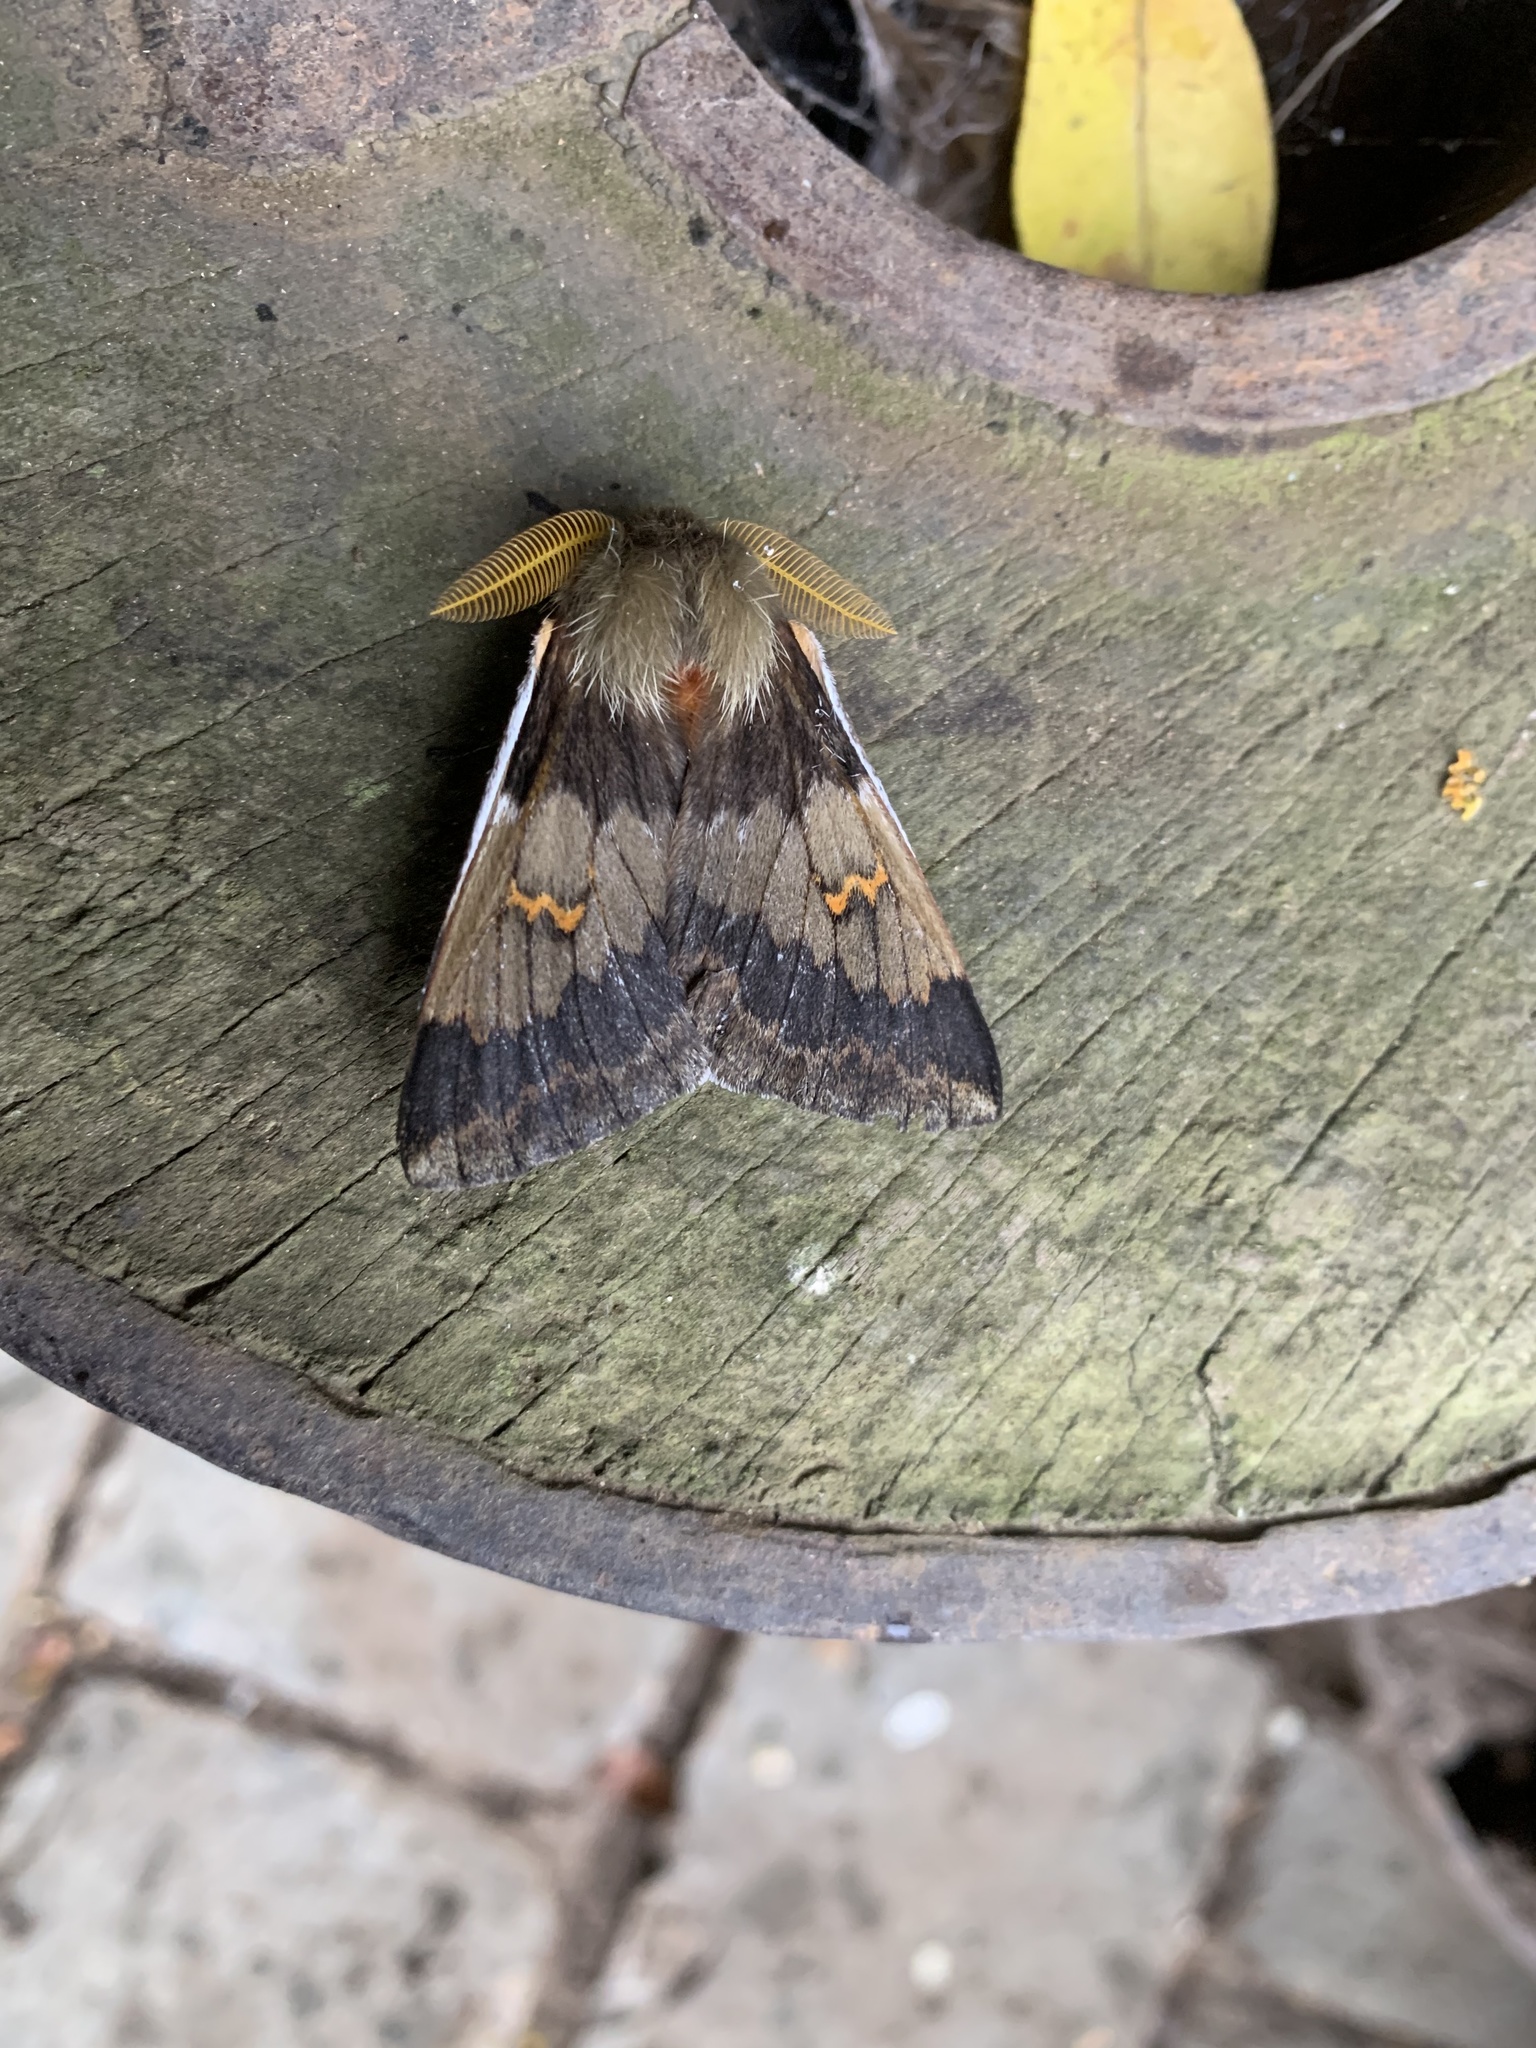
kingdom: Animalia
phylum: Arthropoda
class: Insecta
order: Lepidoptera
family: Saturniidae
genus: Ormiscodes
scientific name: Ormiscodes joiceyi
